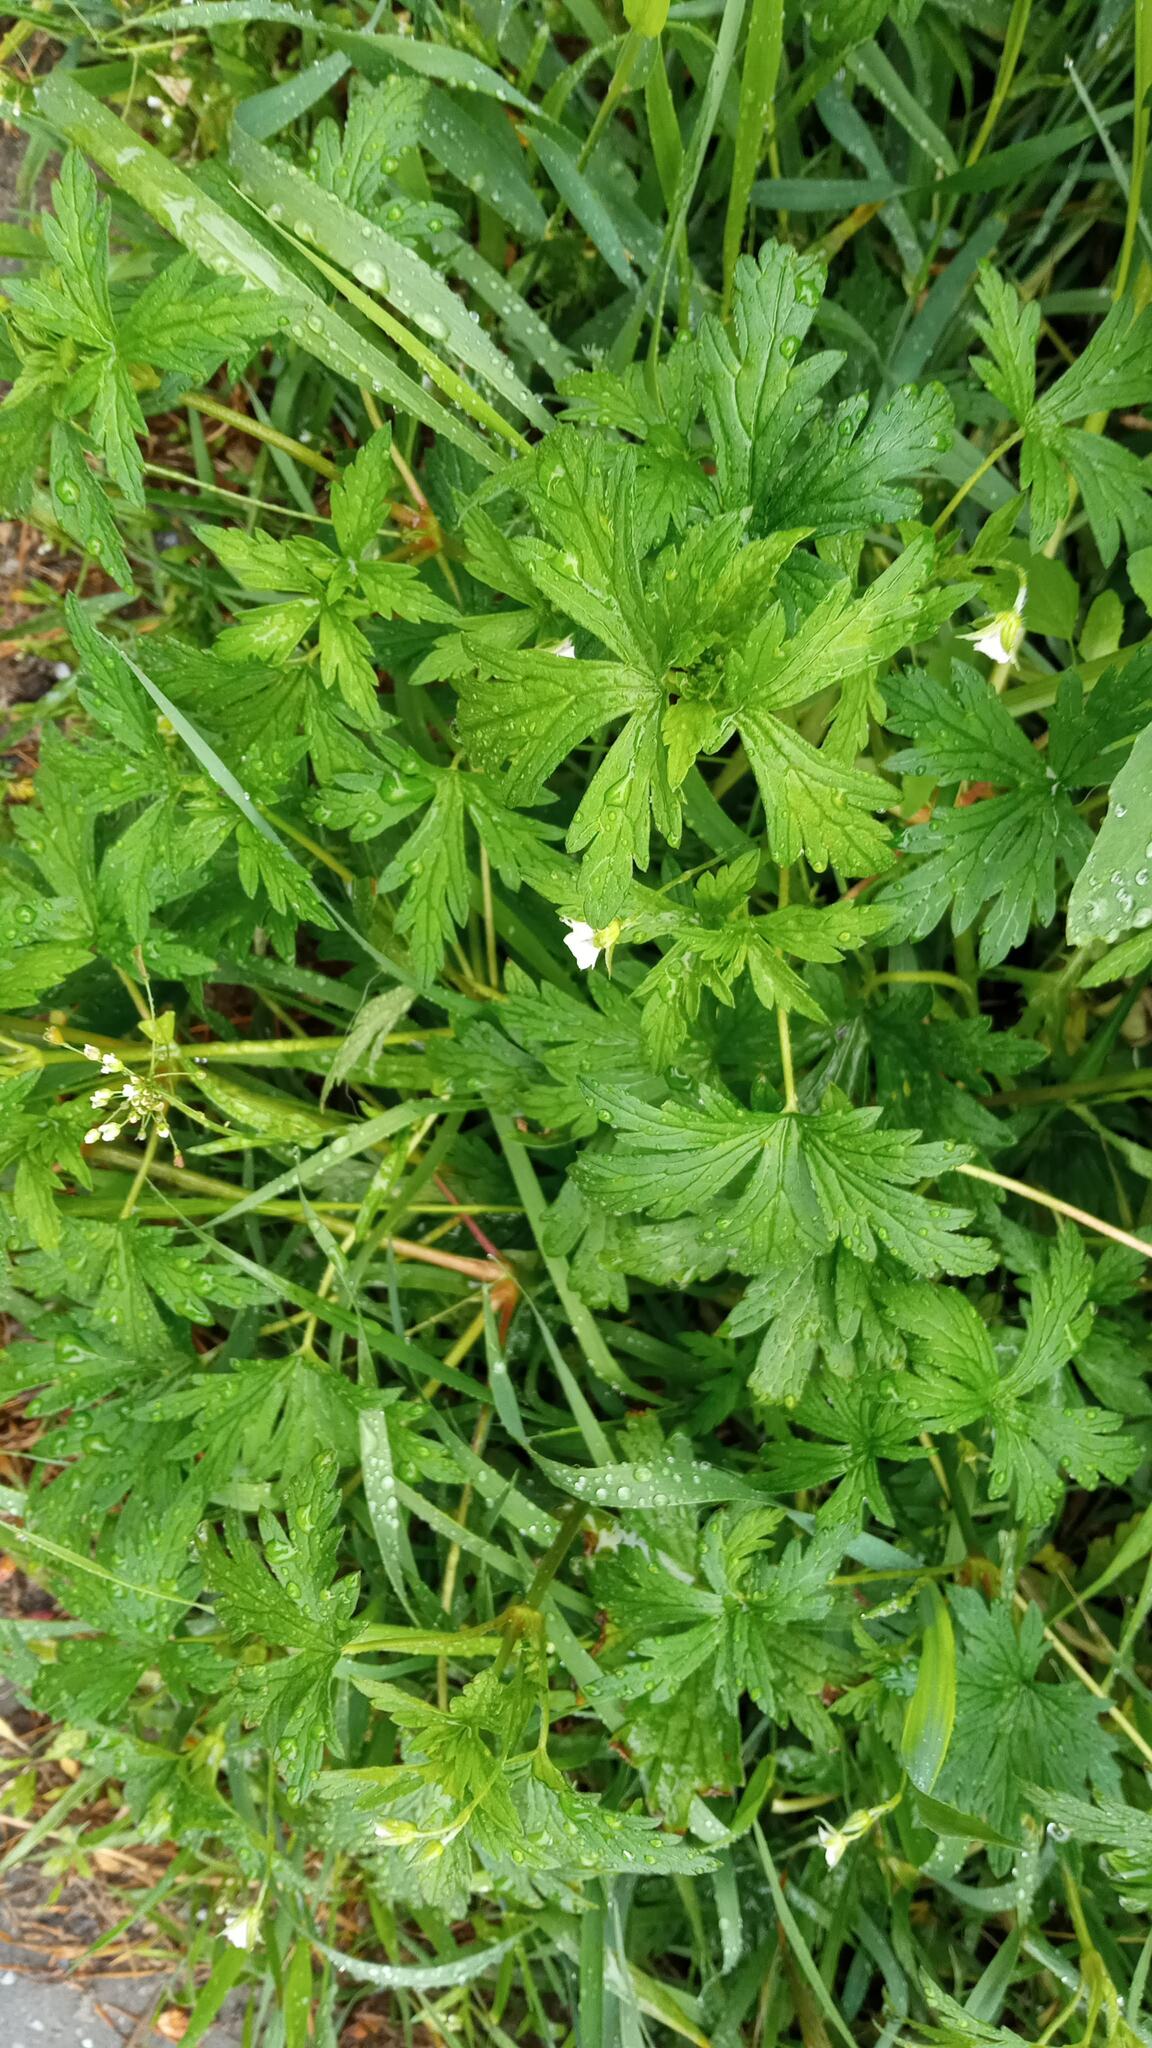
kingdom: Plantae
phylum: Tracheophyta
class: Magnoliopsida
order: Geraniales
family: Geraniaceae
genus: Geranium
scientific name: Geranium sibiricum
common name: Siberian crane's-bill
